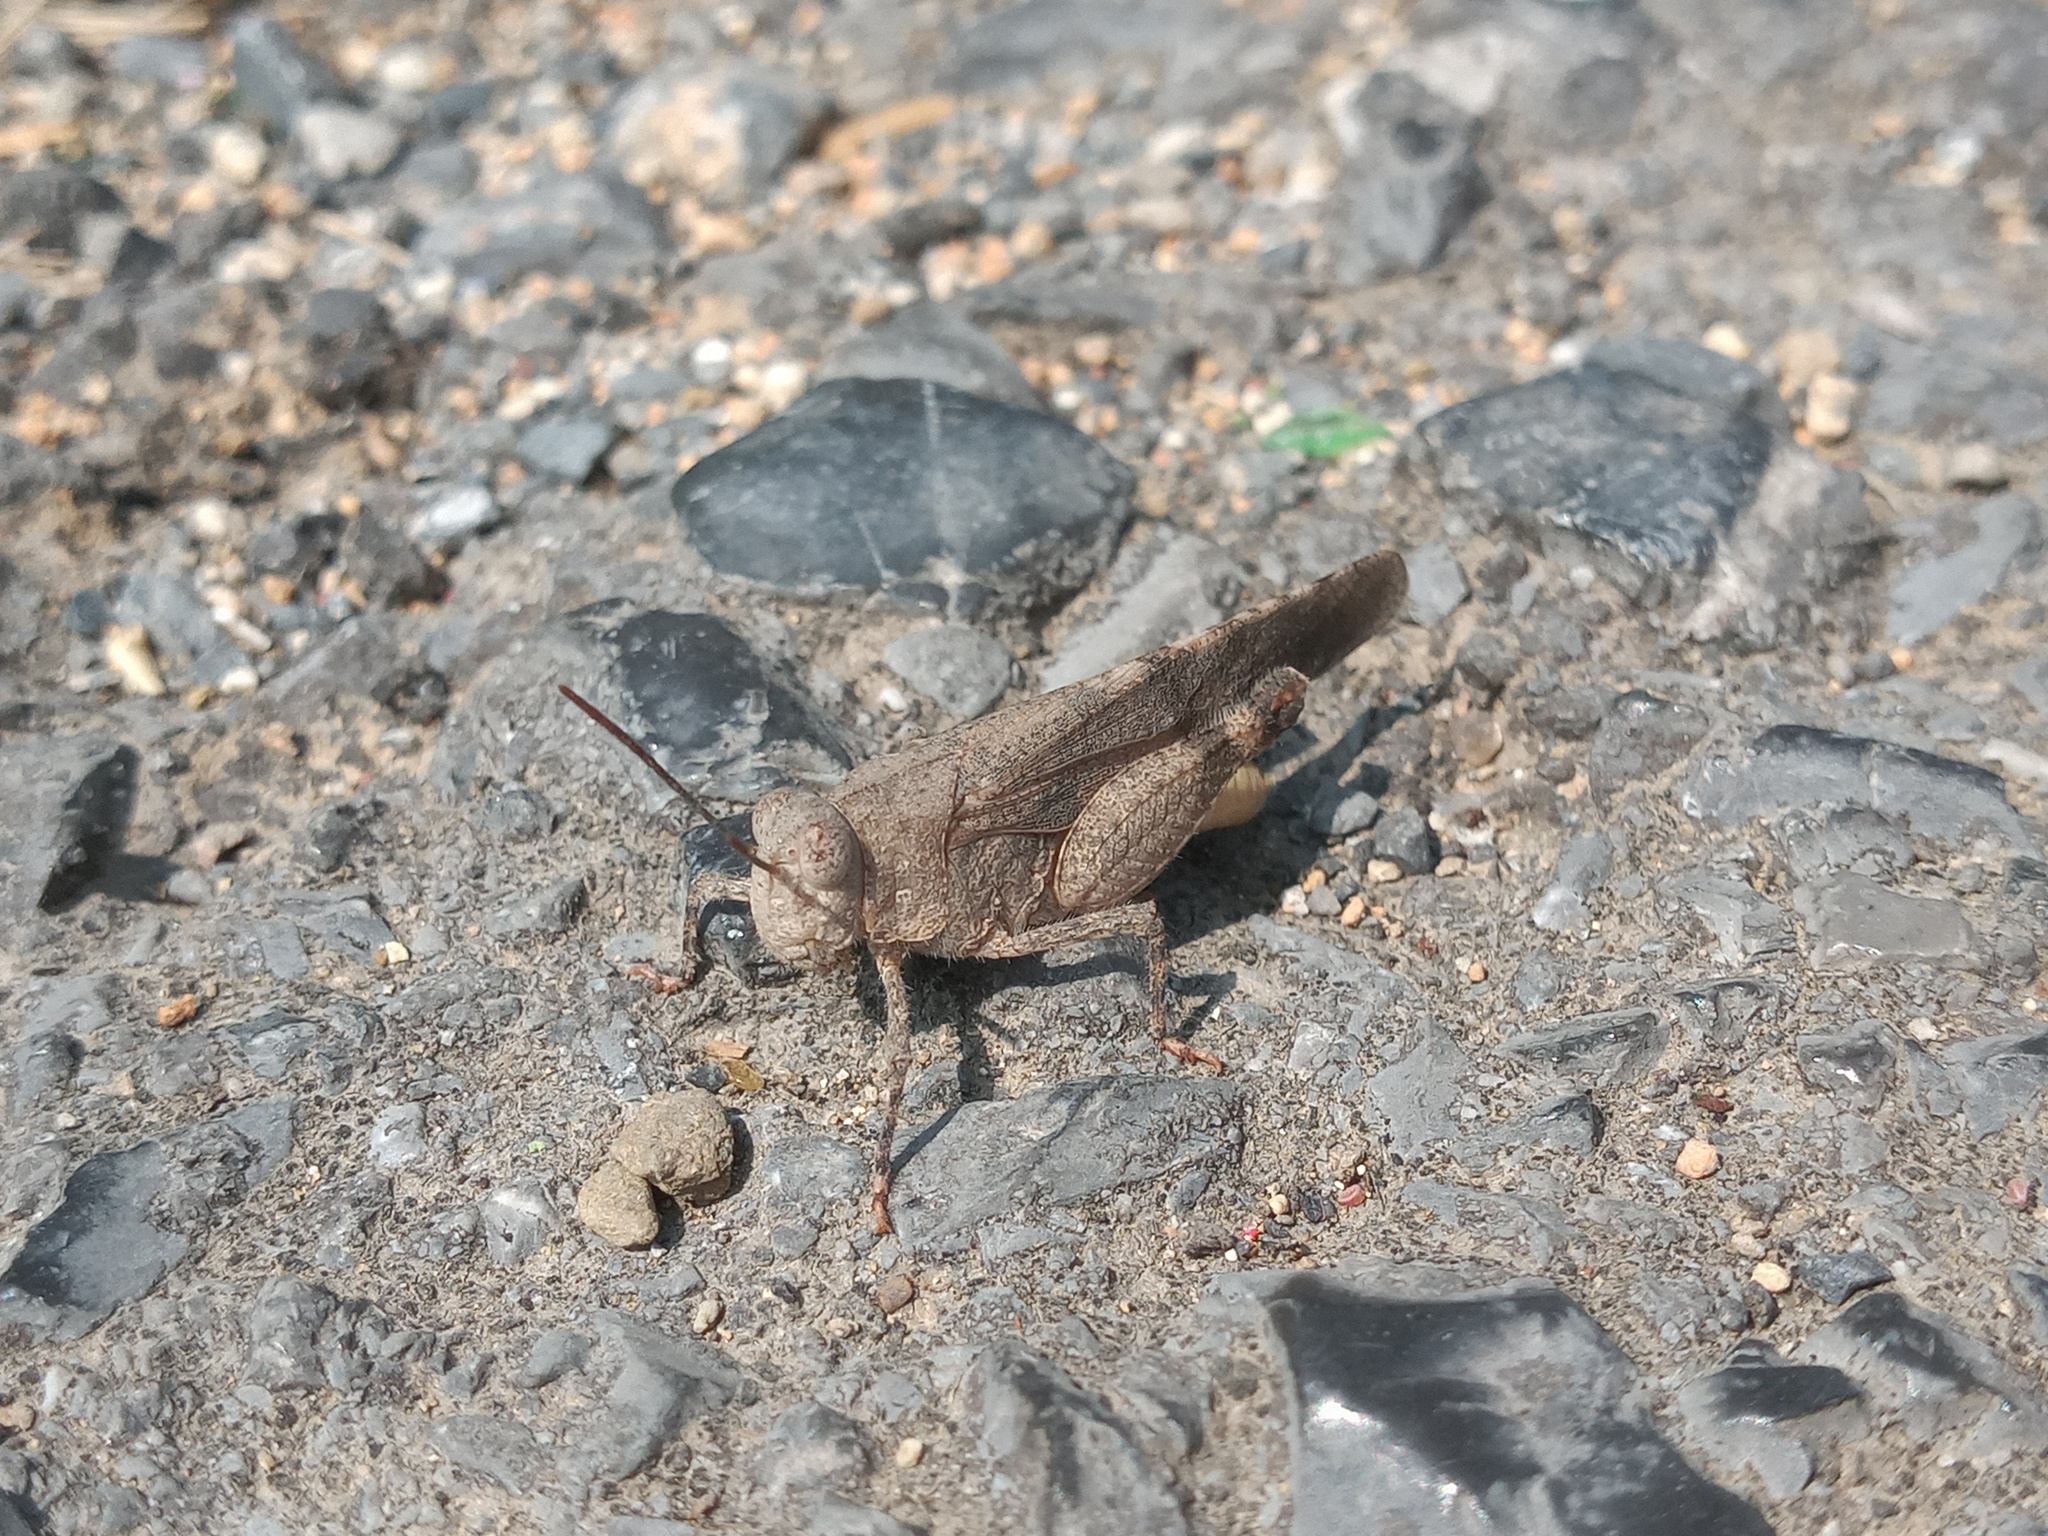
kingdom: Animalia
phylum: Arthropoda
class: Insecta
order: Orthoptera
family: Acrididae
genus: Lactista
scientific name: Lactista azteca
